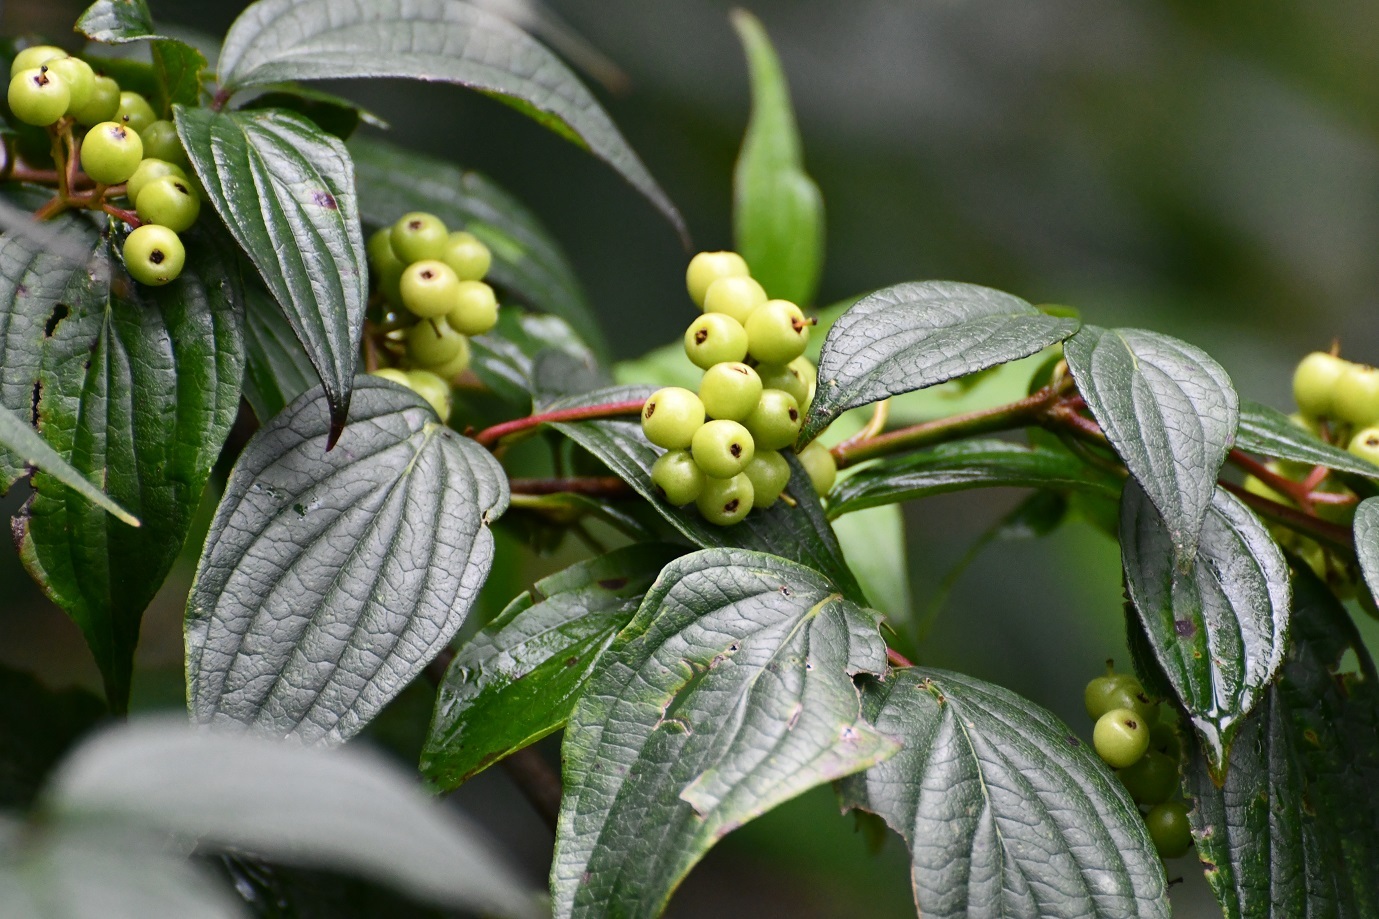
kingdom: Plantae
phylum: Tracheophyta
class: Magnoliopsida
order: Cornales
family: Cornaceae
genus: Cornus
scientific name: Cornus excelsa
